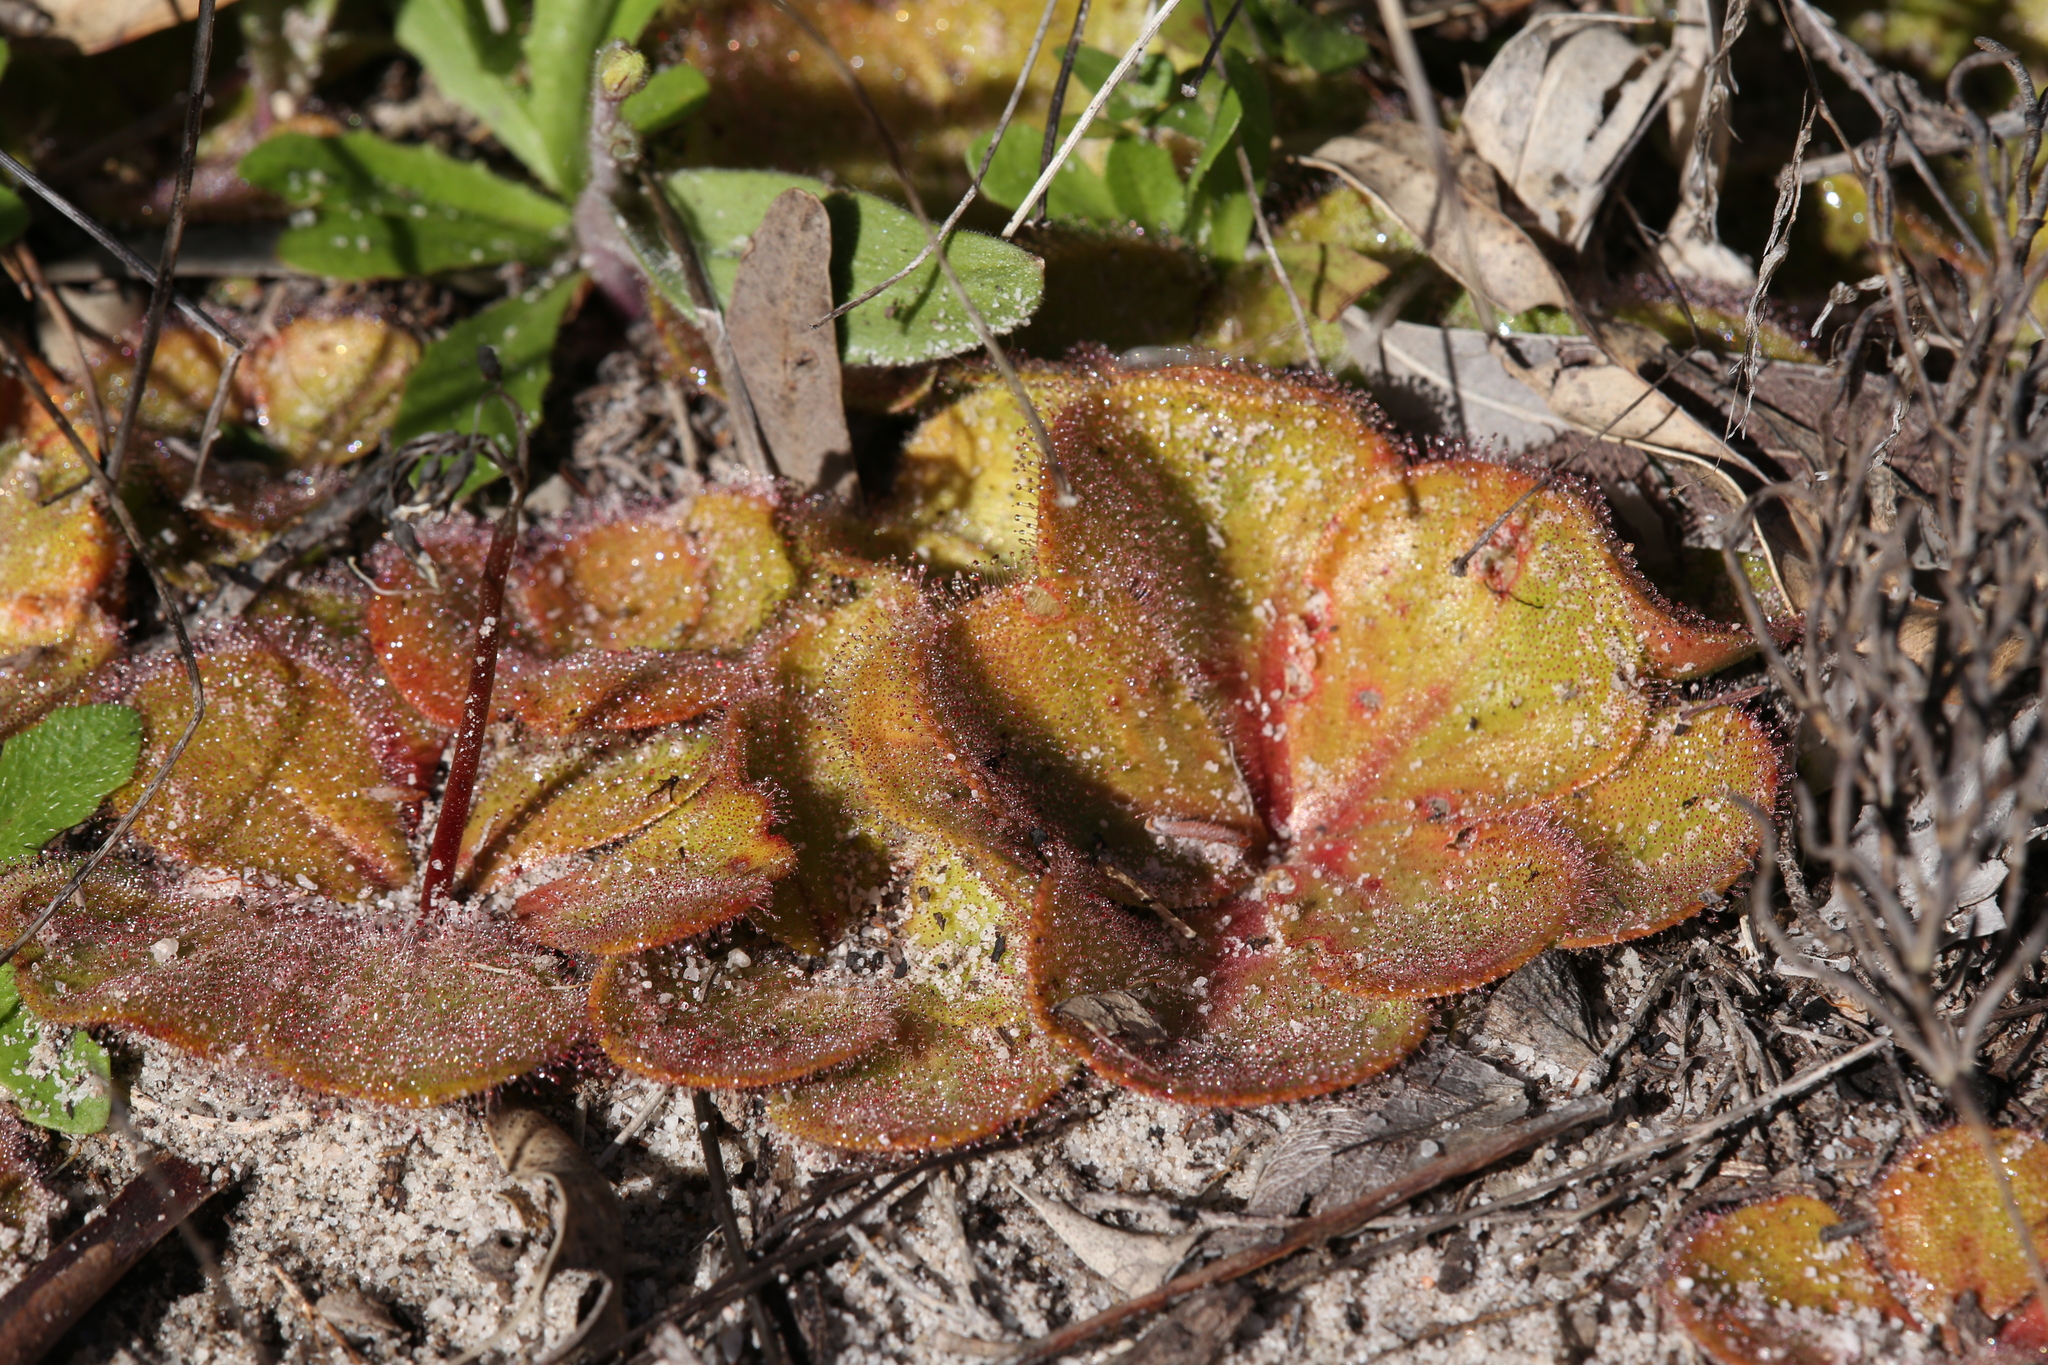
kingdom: Plantae
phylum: Tracheophyta
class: Magnoliopsida
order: Caryophyllales
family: Droseraceae
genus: Drosera
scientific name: Drosera erythrorhiza
